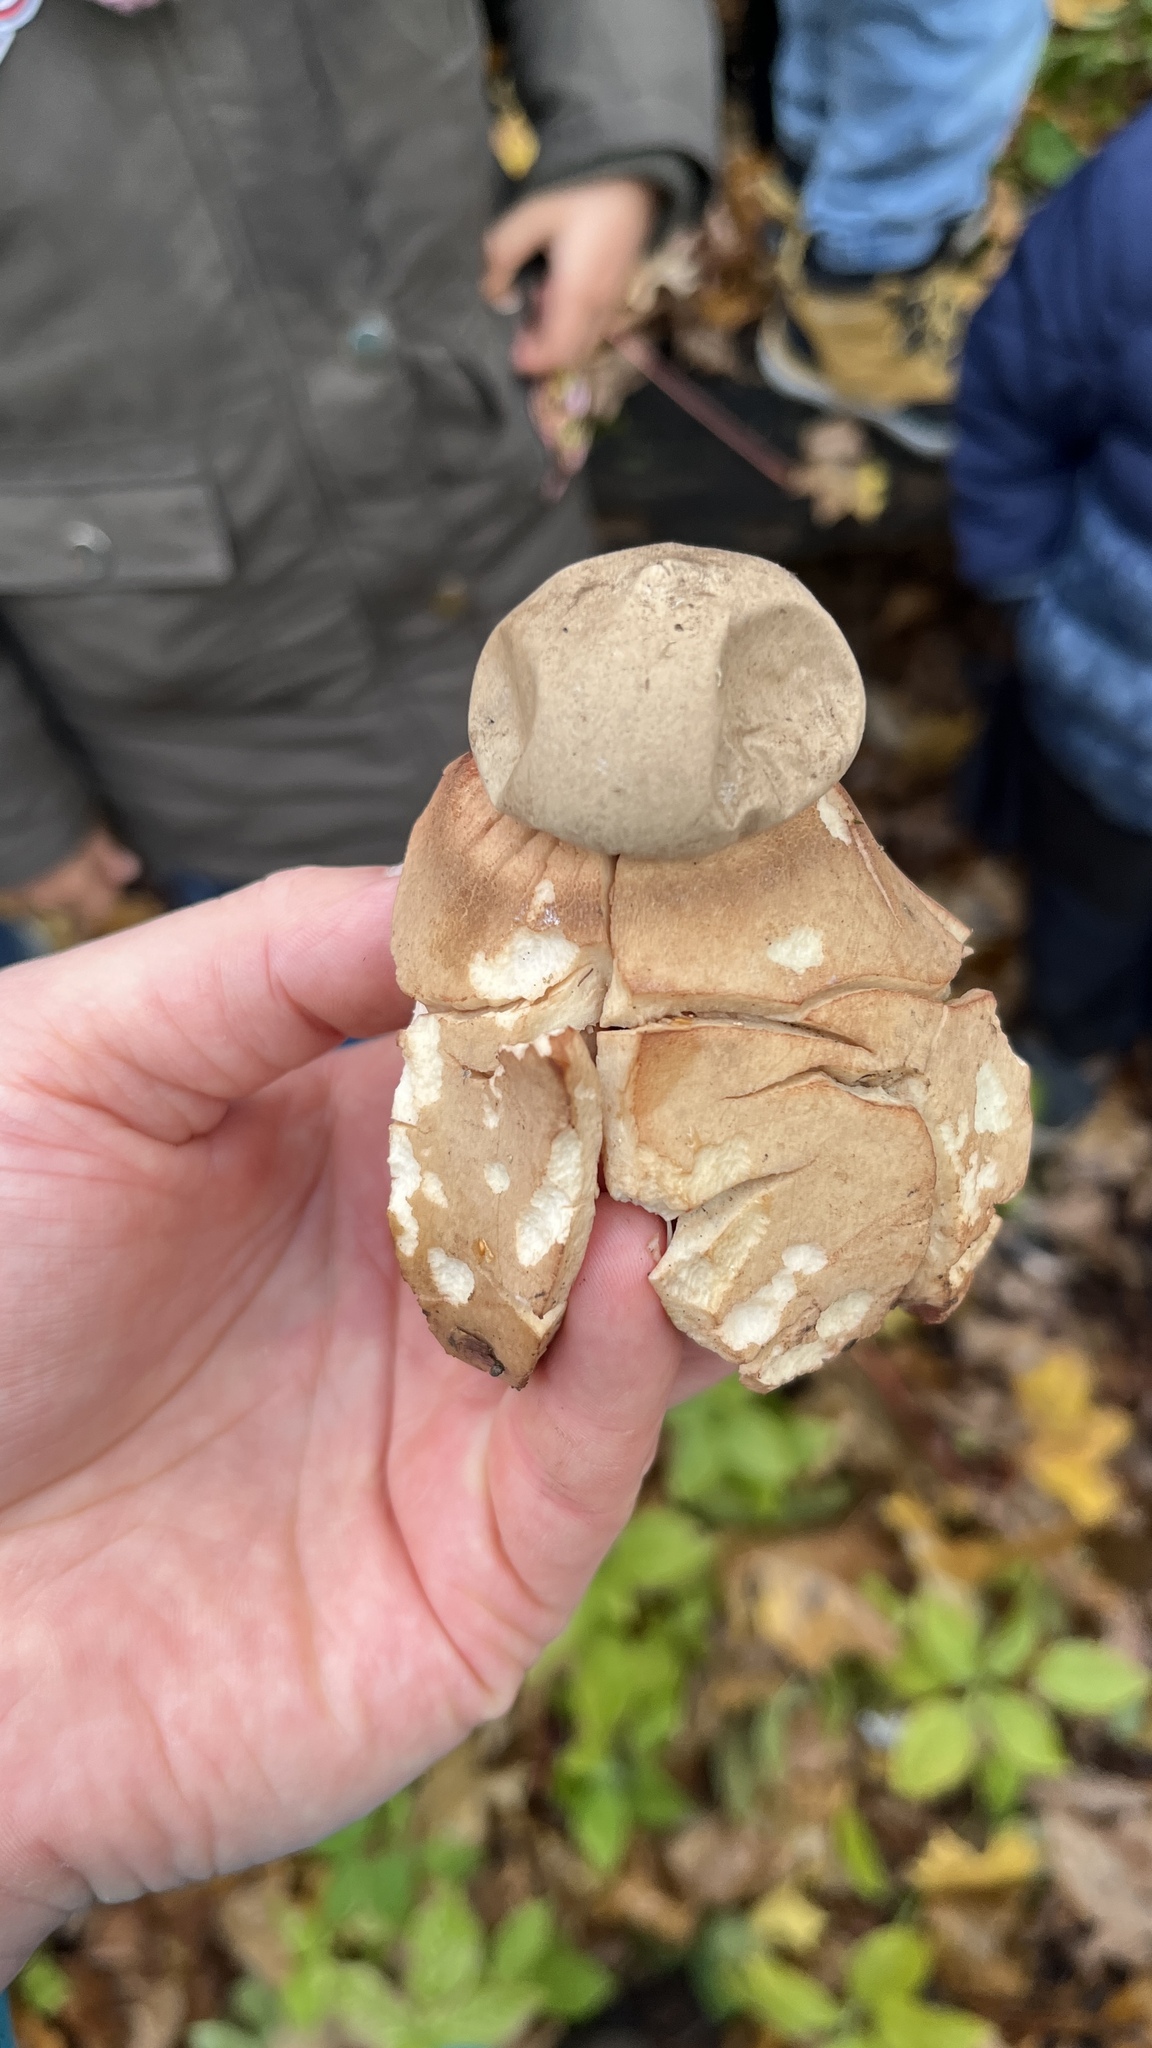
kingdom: Fungi
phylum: Basidiomycota
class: Agaricomycetes
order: Geastrales
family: Geastraceae
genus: Geastrum
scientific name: Geastrum rufescens
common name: Rosy earthstar
